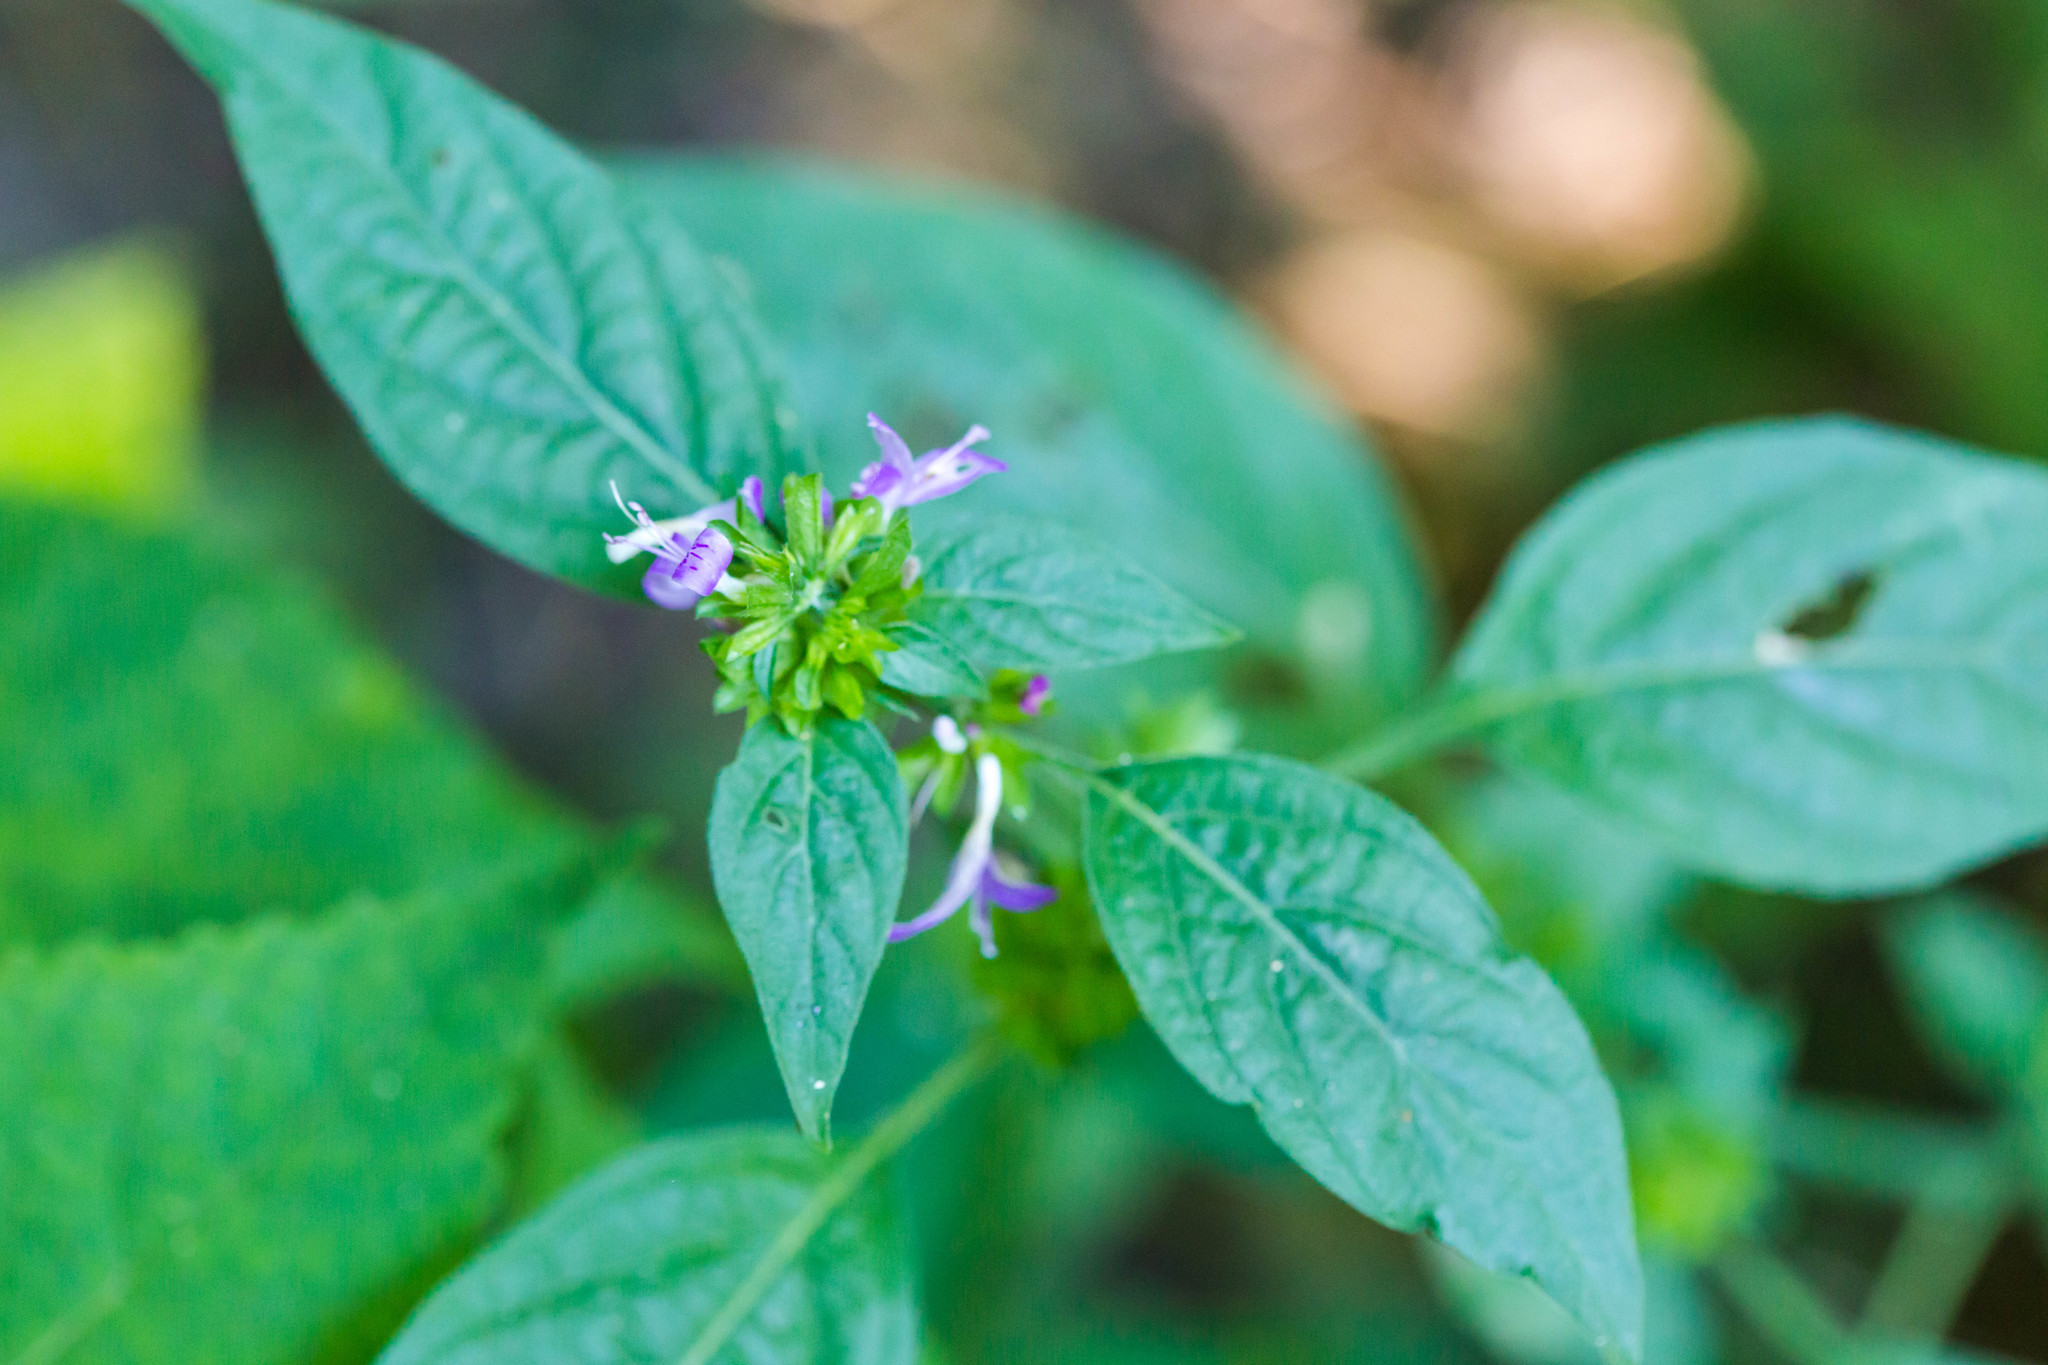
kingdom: Plantae
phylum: Tracheophyta
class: Magnoliopsida
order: Lamiales
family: Acanthaceae
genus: Dicliptera
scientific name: Dicliptera brachiata
